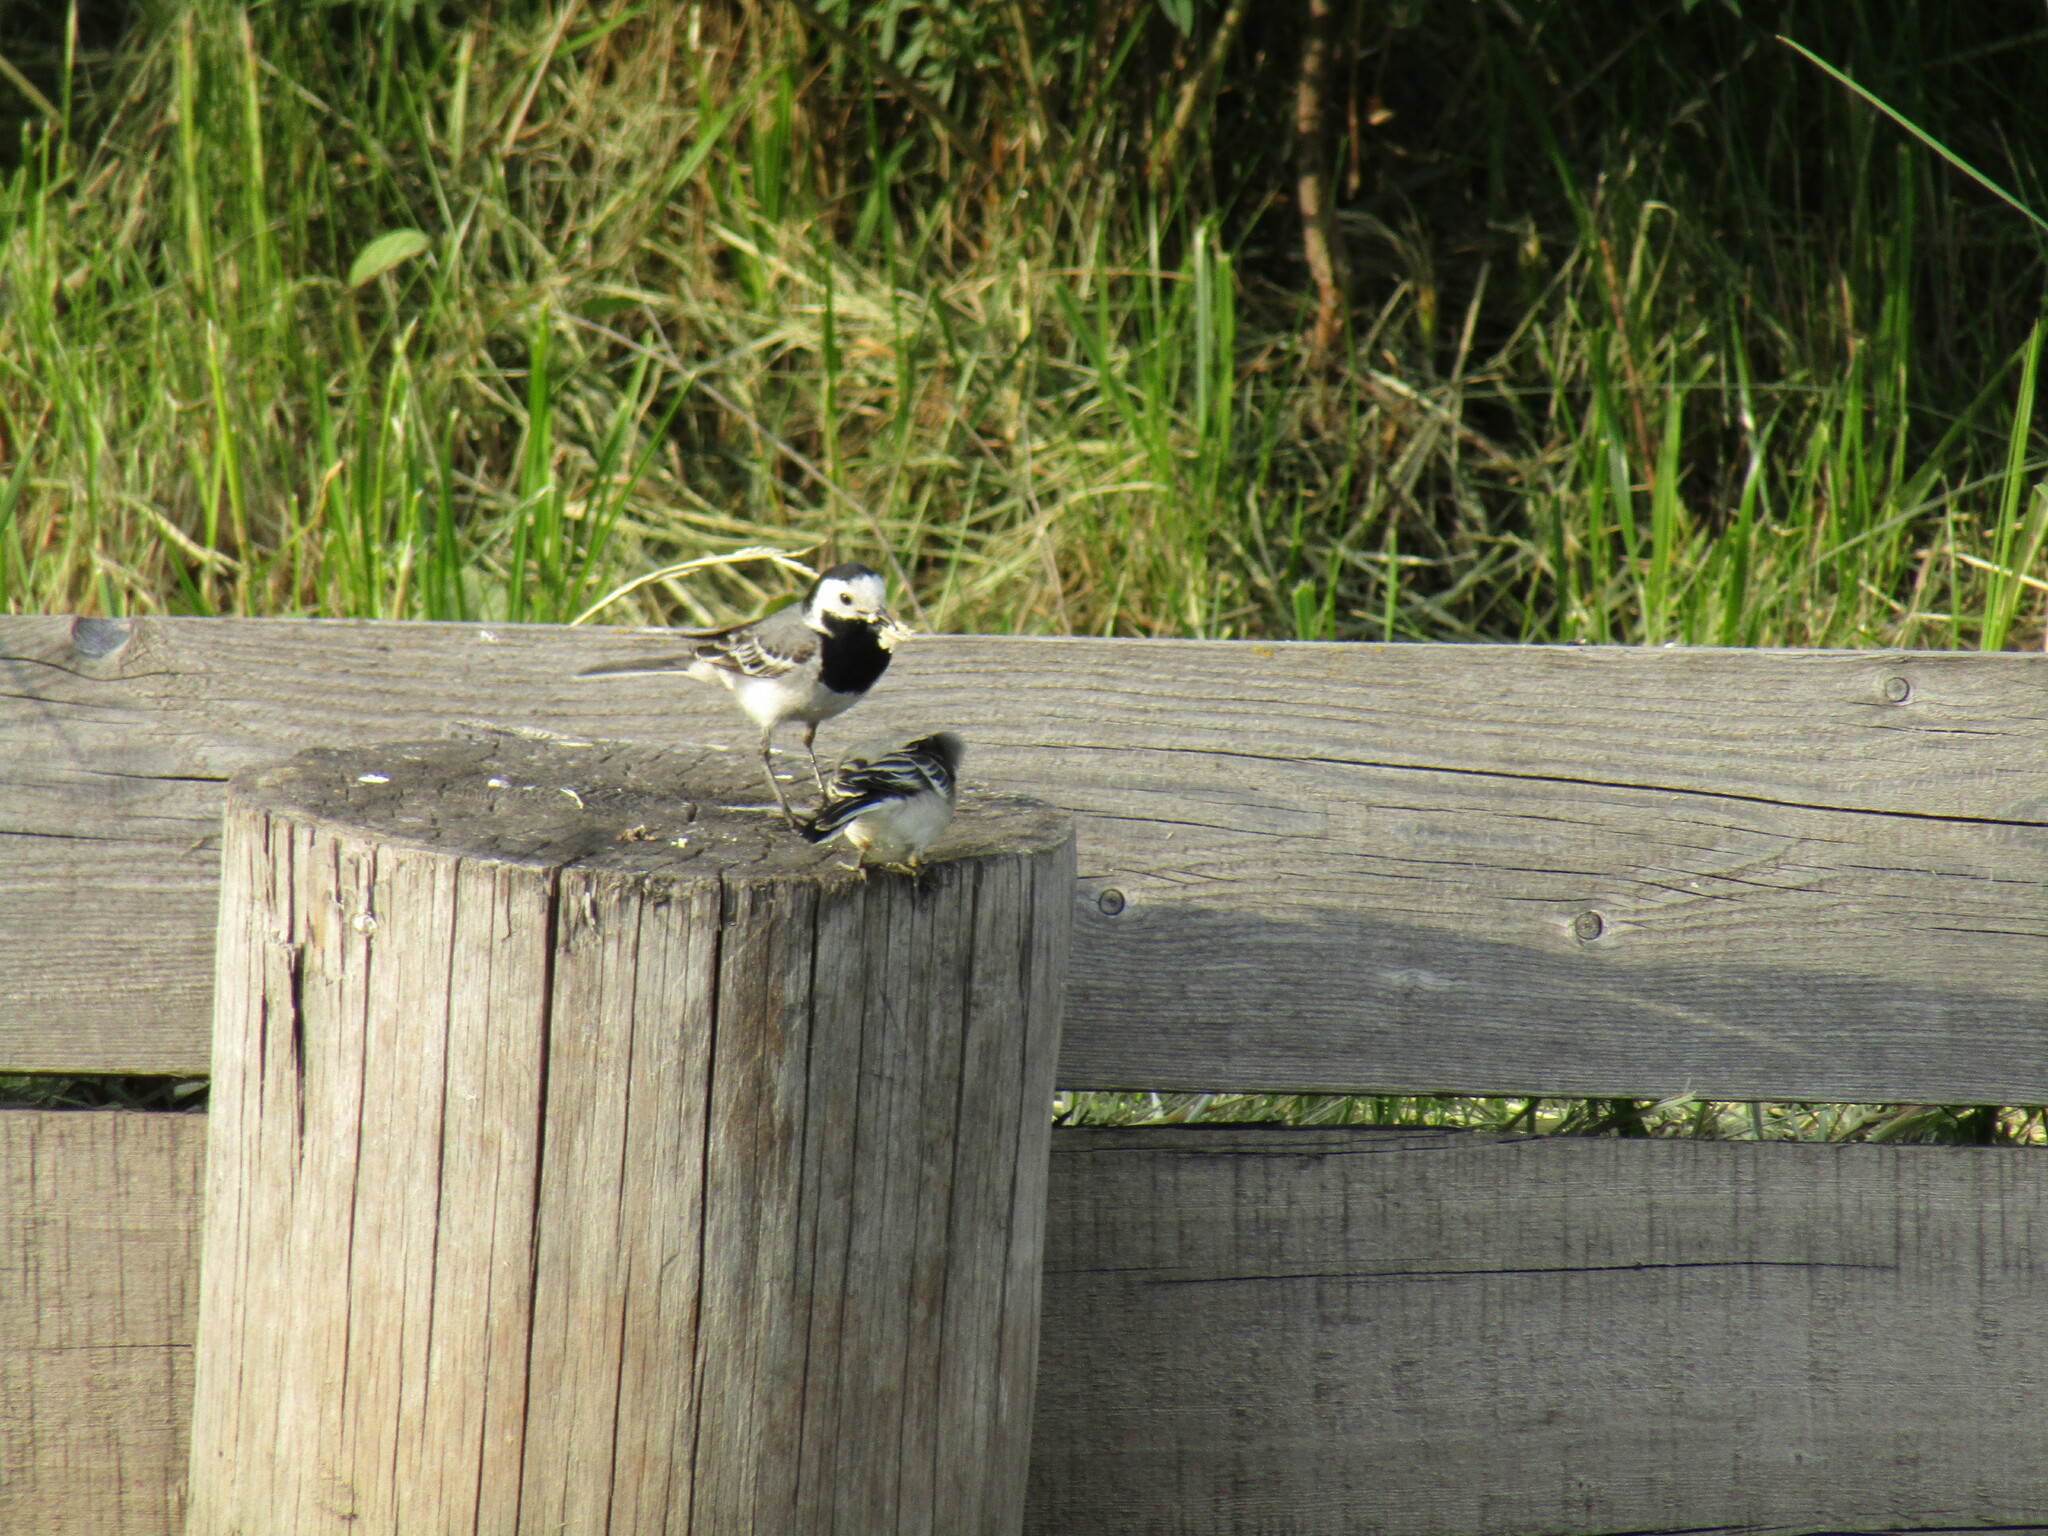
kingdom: Animalia
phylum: Chordata
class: Aves
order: Passeriformes
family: Motacillidae
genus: Motacilla
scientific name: Motacilla alba
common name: White wagtail
